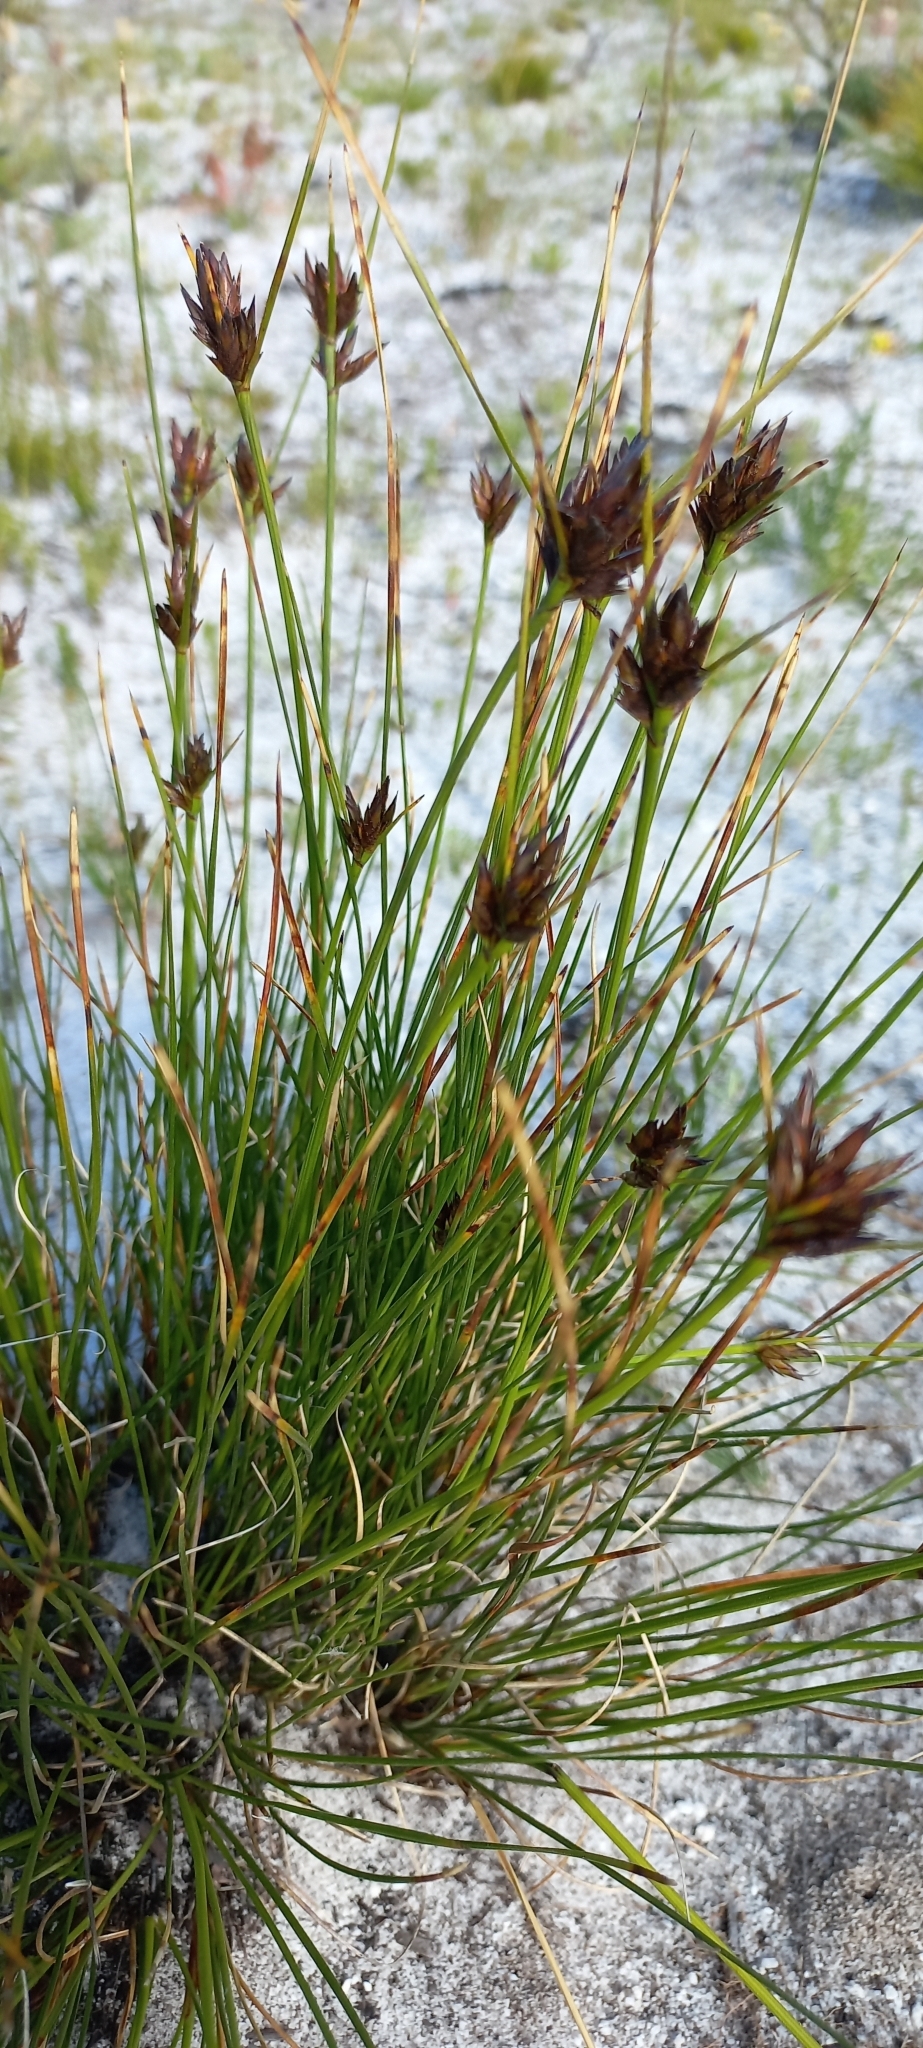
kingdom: Plantae
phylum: Tracheophyta
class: Liliopsida
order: Poales
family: Cyperaceae
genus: Schoenus
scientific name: Schoenus compar
